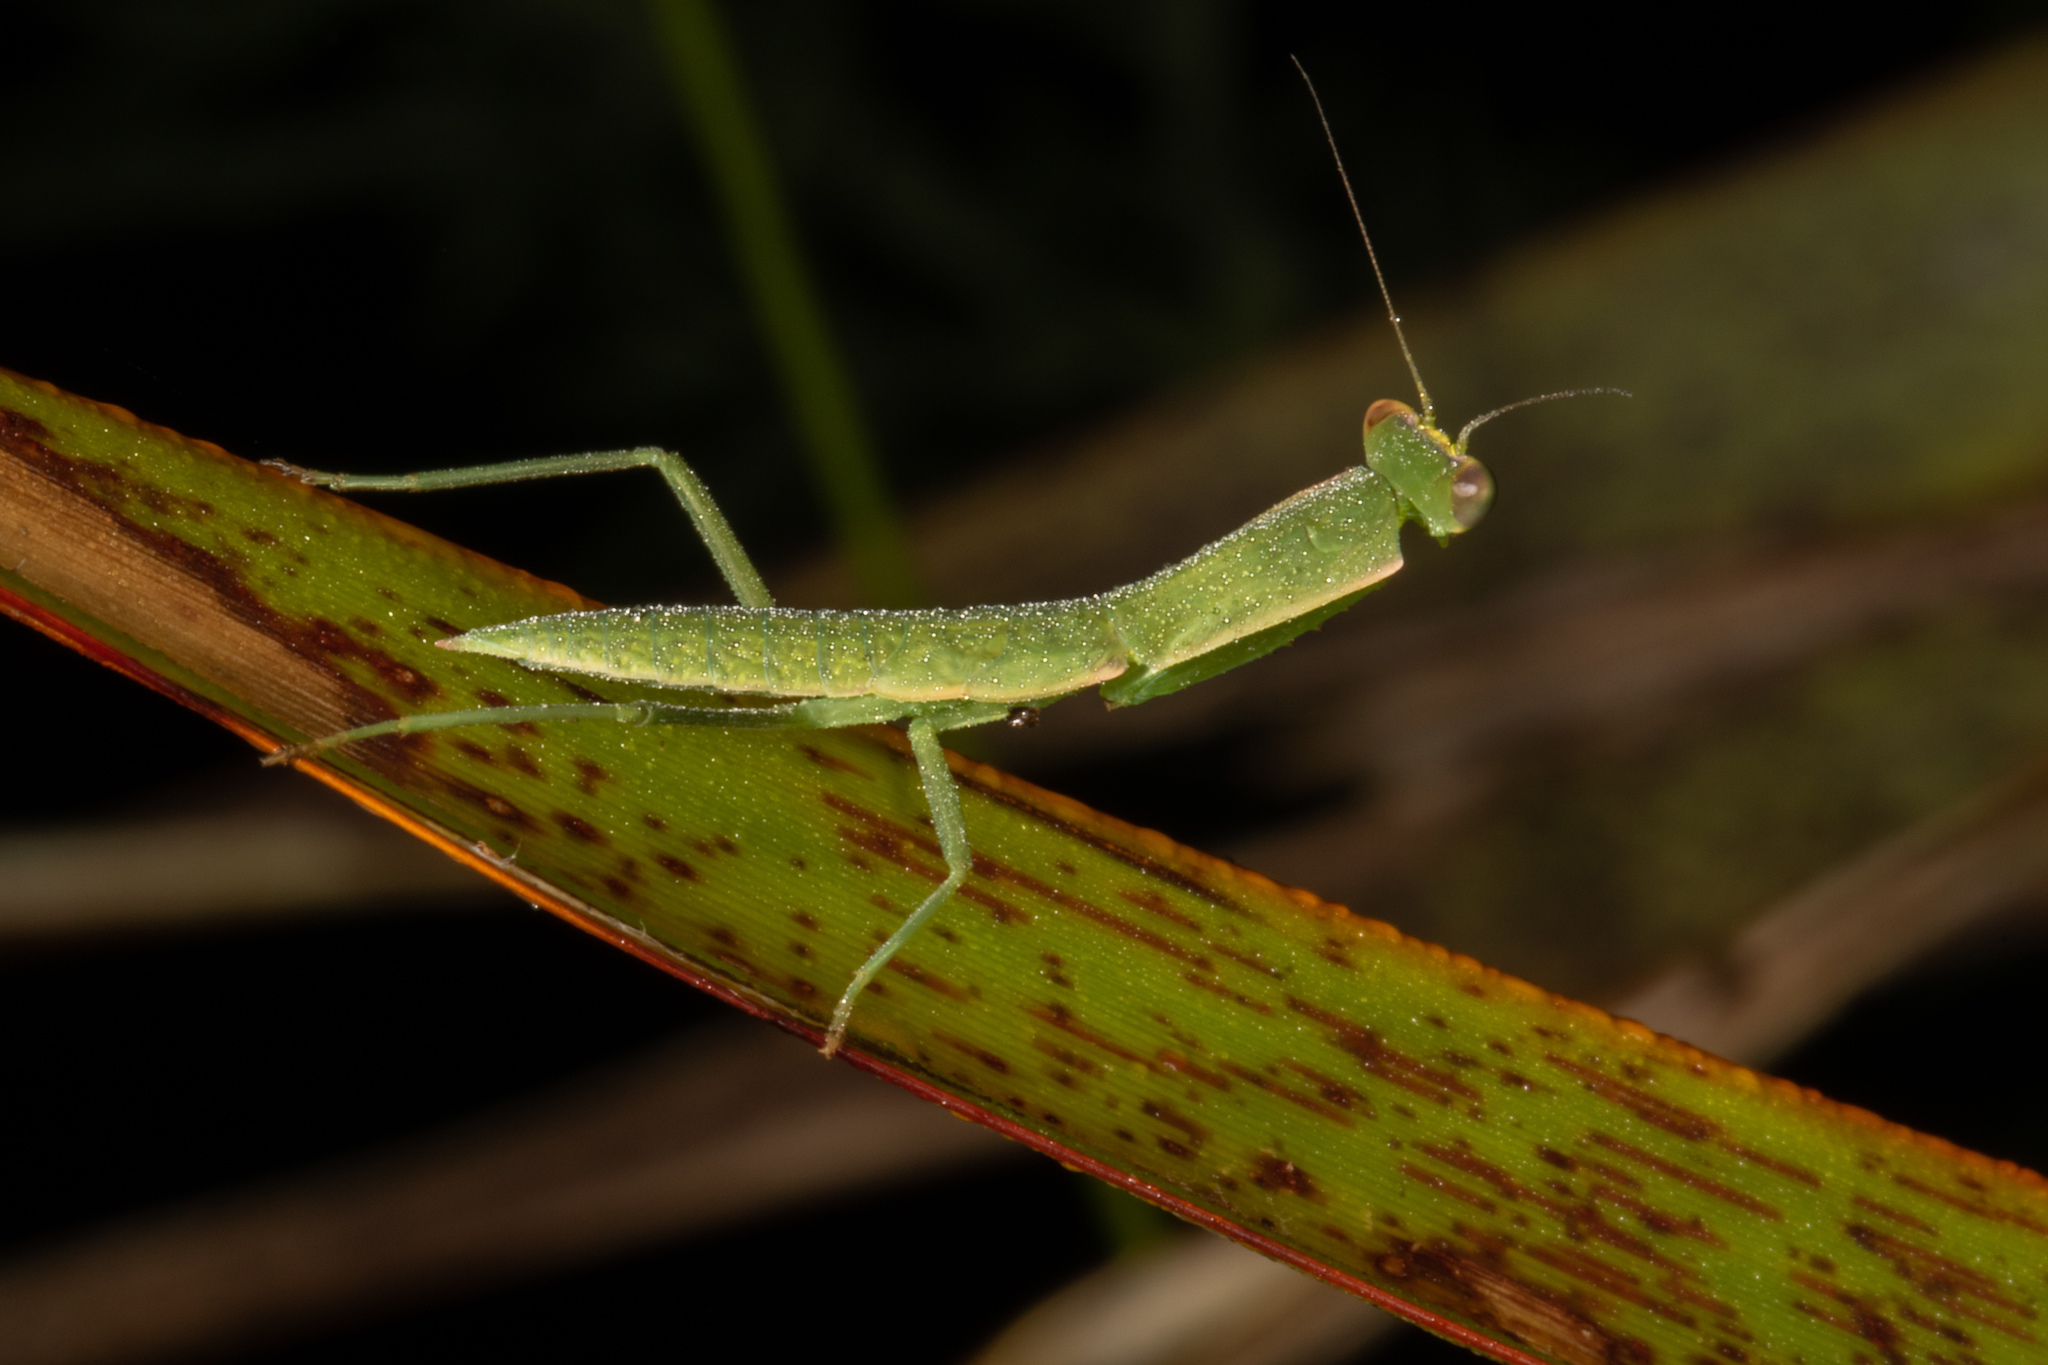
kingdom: Animalia
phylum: Arthropoda
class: Insecta
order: Mantodea
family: Mantidae
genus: Orthodera
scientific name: Orthodera novaezealandiae
